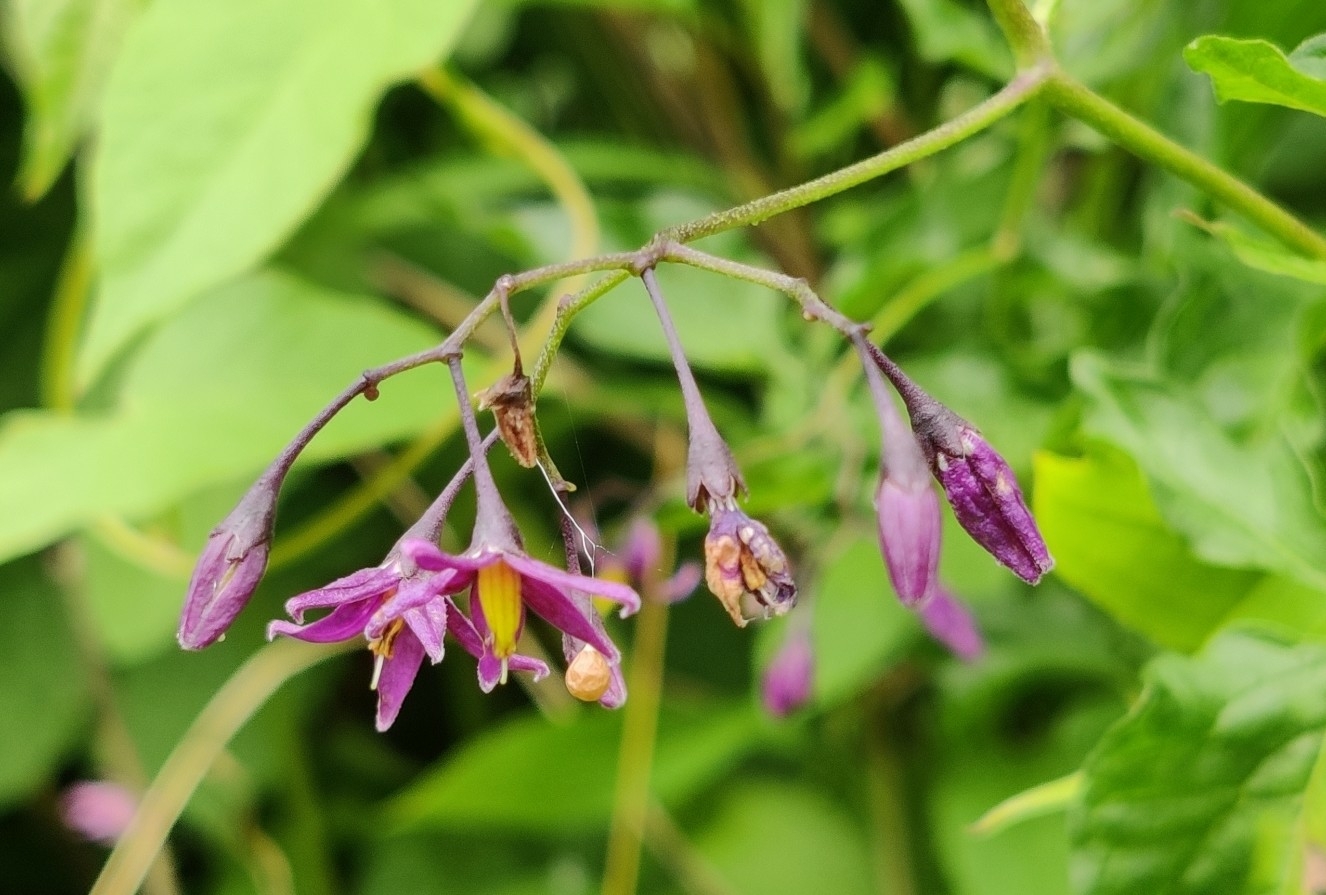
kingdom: Plantae
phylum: Tracheophyta
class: Magnoliopsida
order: Solanales
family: Solanaceae
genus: Solanum
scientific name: Solanum dulcamara
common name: Climbing nightshade
